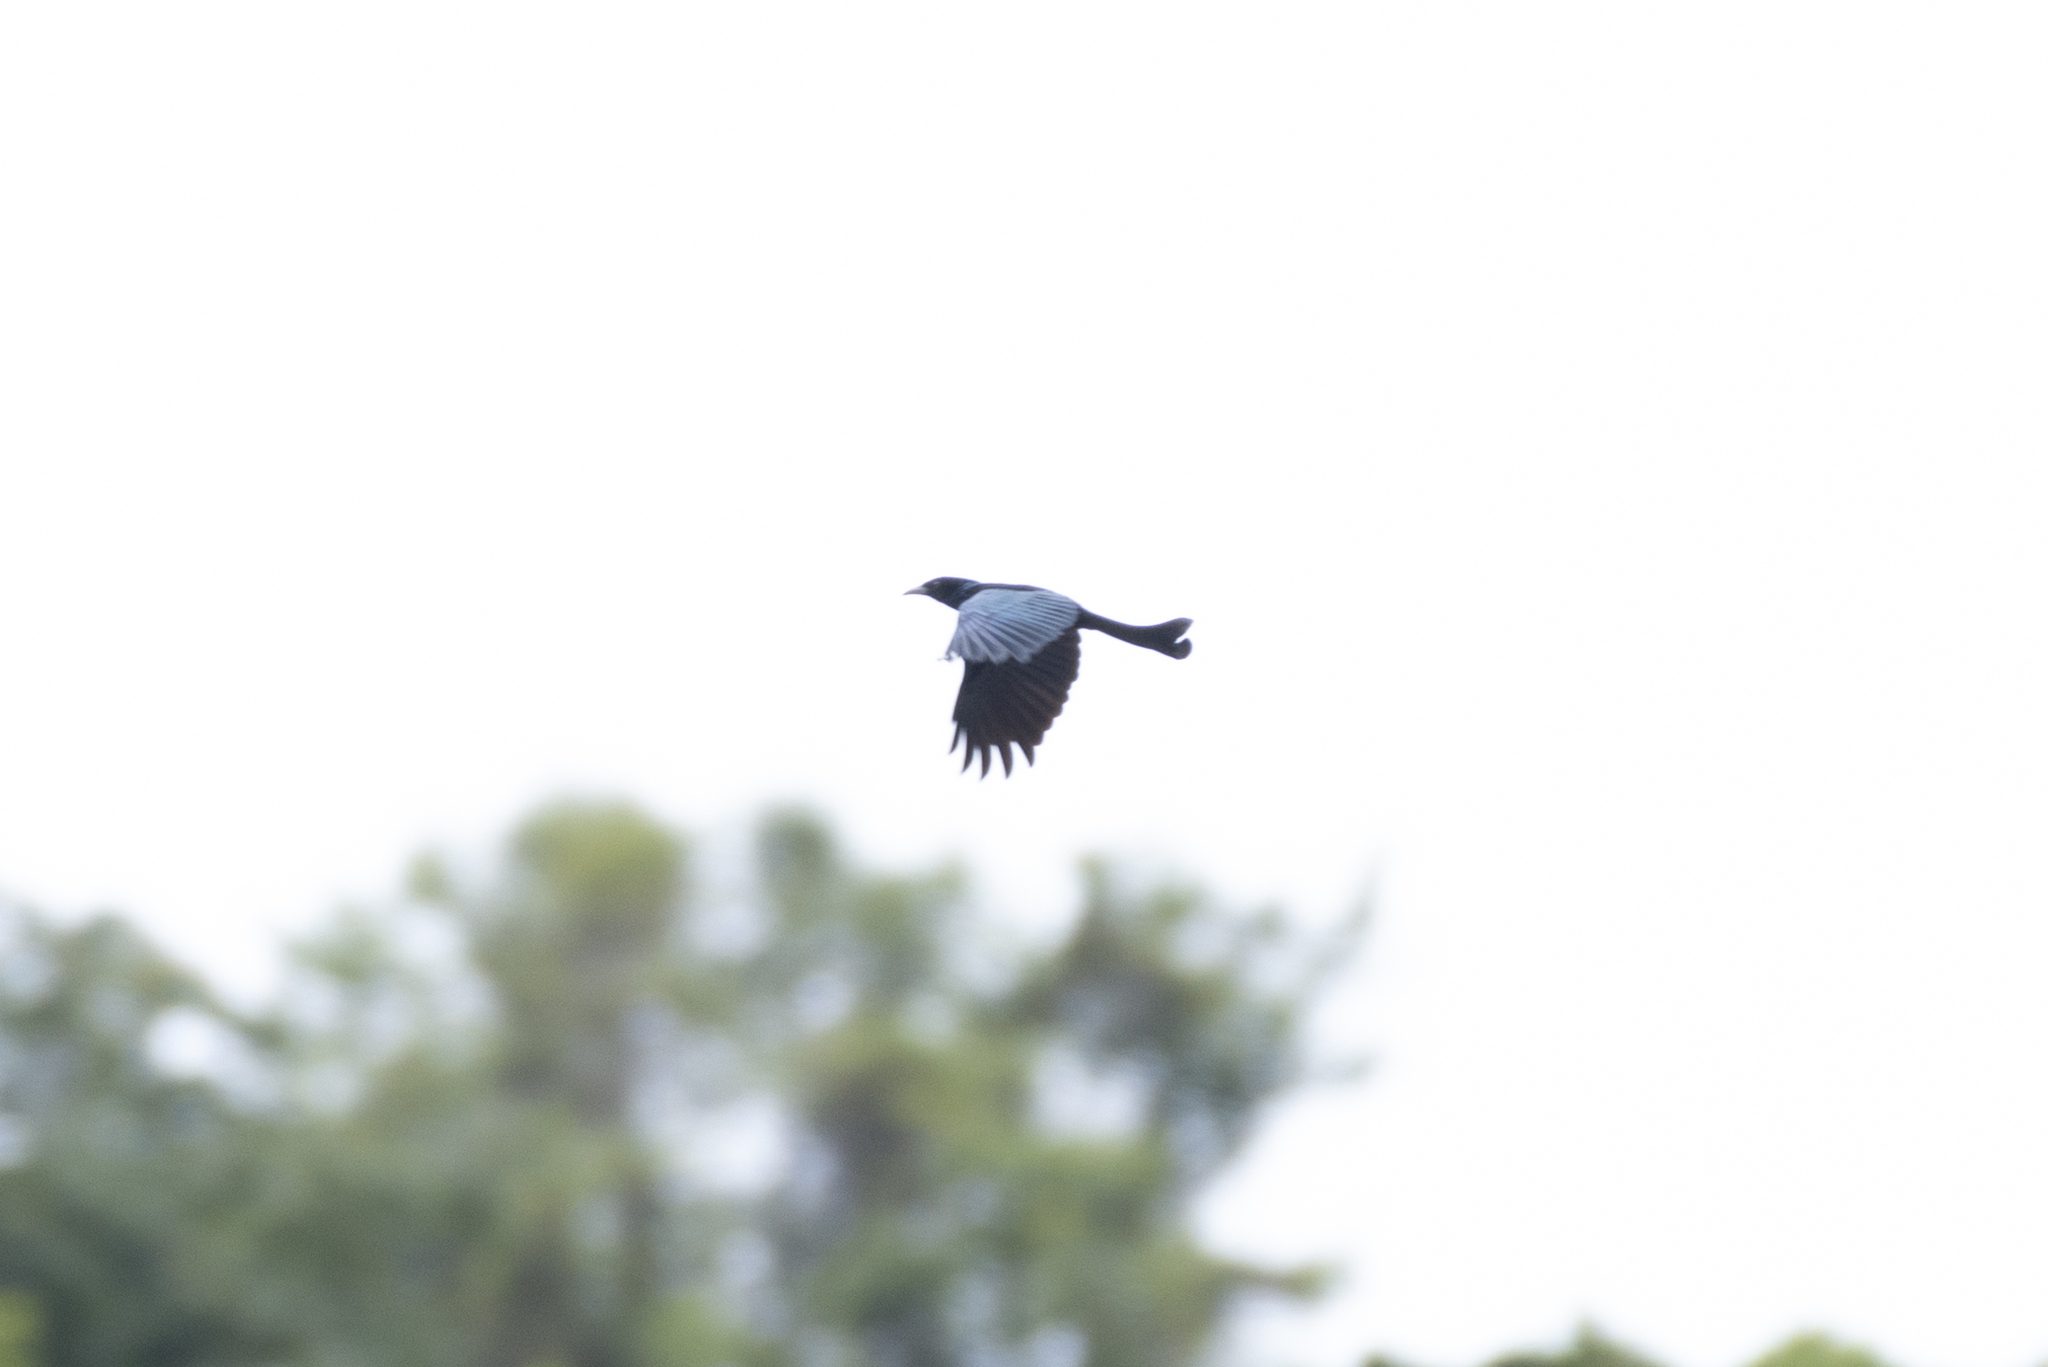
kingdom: Animalia
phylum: Chordata
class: Aves
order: Passeriformes
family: Dicruridae
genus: Dicrurus
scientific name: Dicrurus hottentottus
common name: Hair-crested drongo
